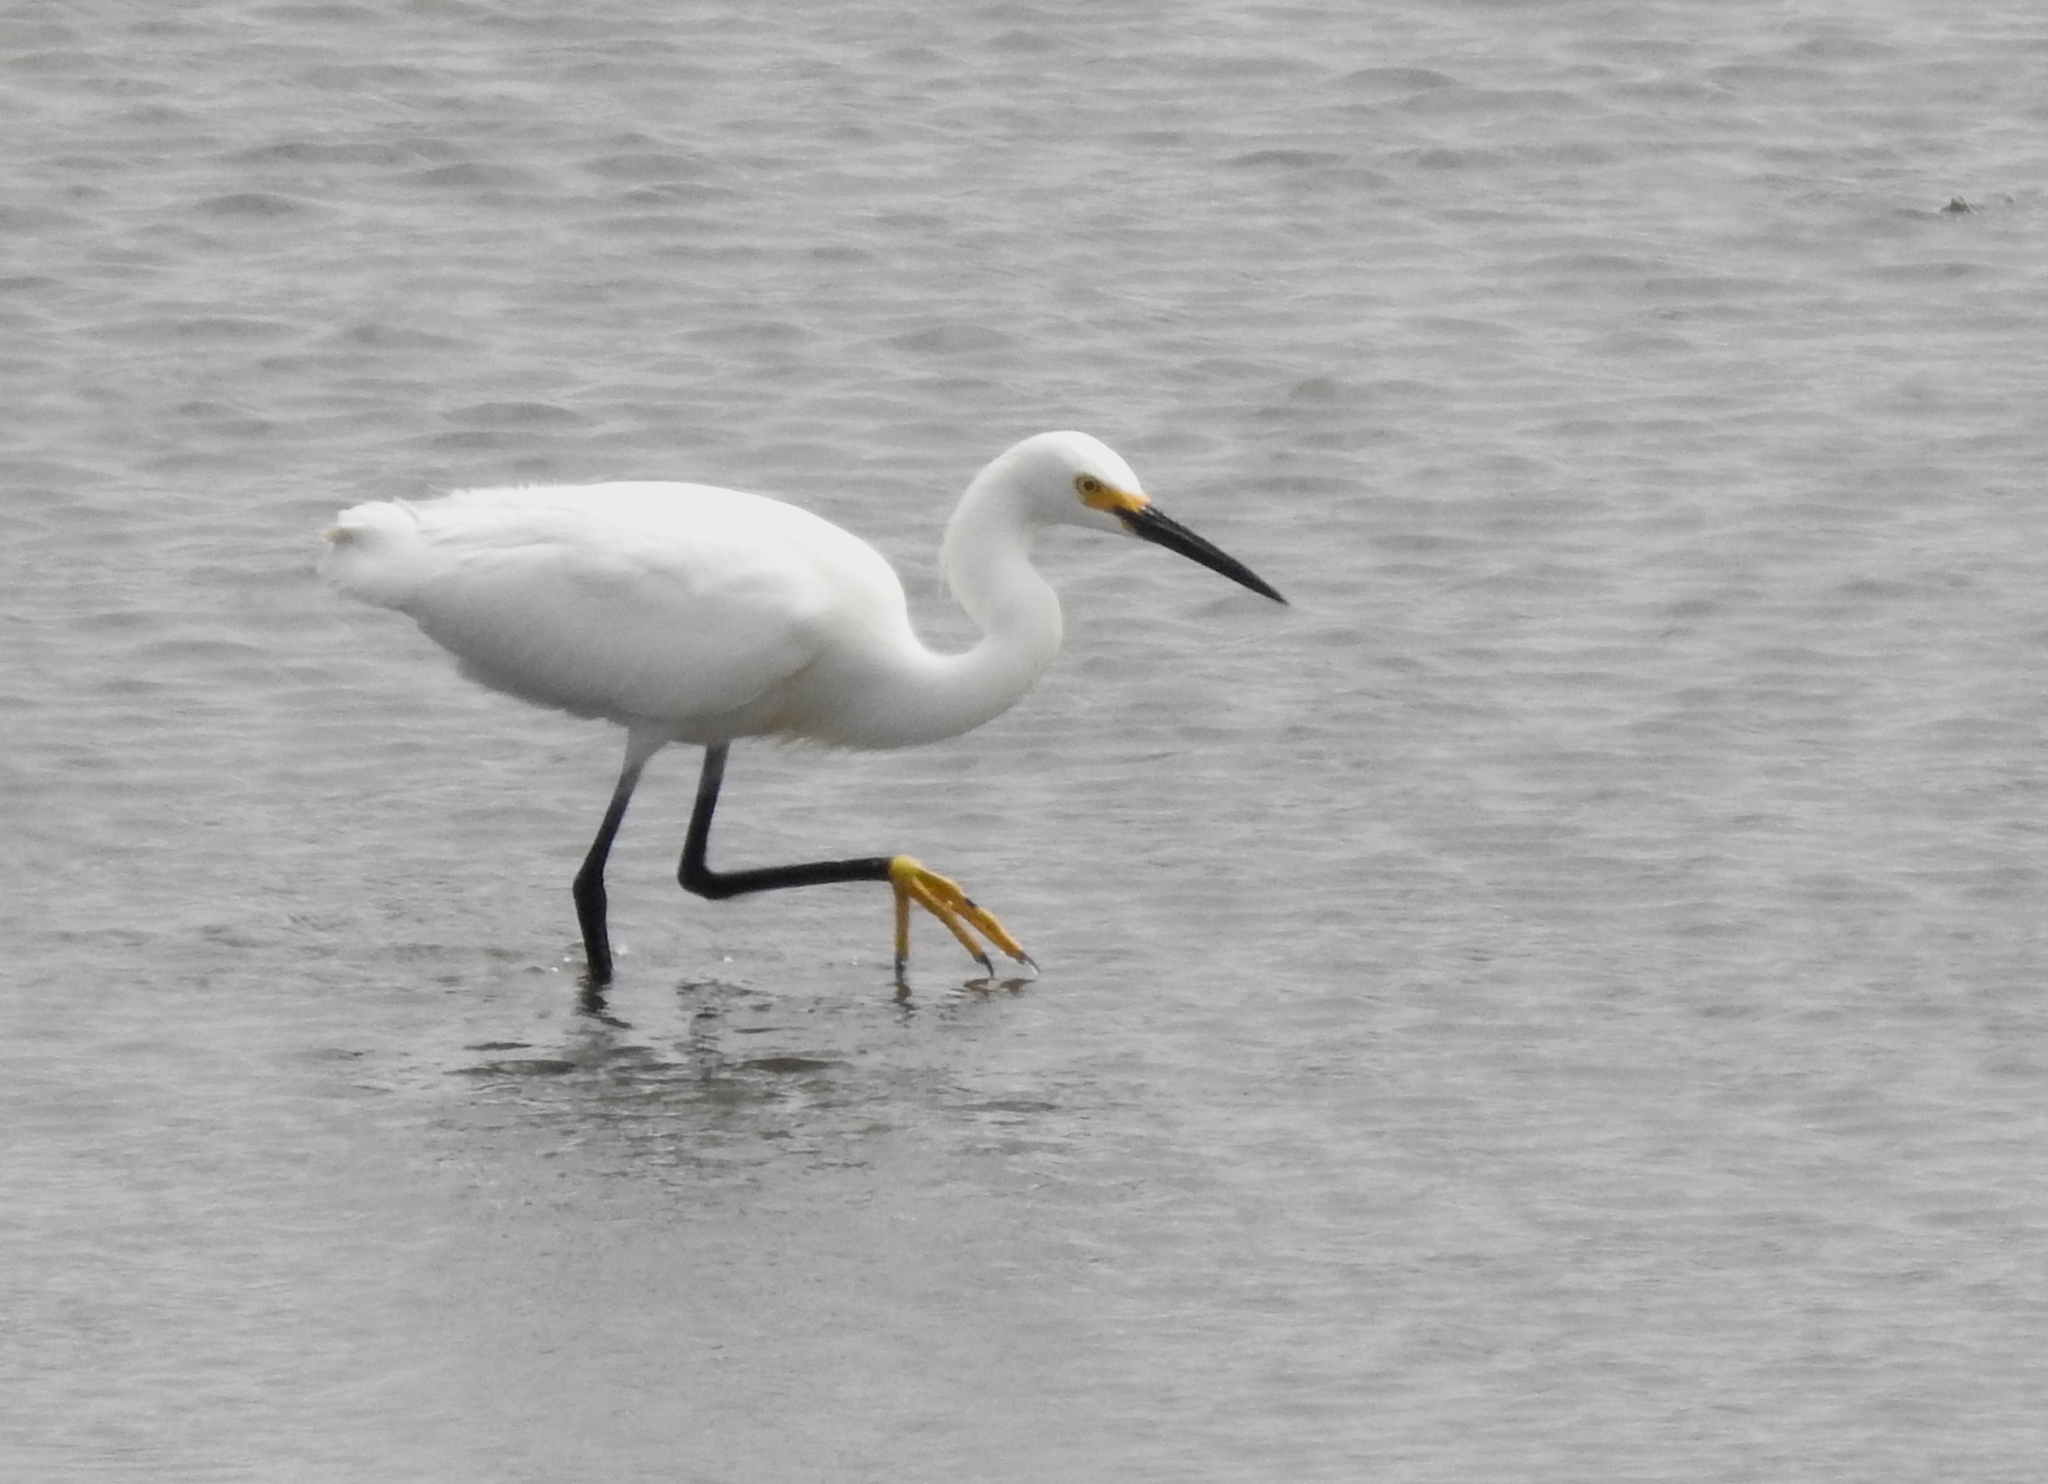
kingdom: Animalia
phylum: Chordata
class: Aves
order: Pelecaniformes
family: Ardeidae
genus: Egretta
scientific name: Egretta thula
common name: Snowy egret
